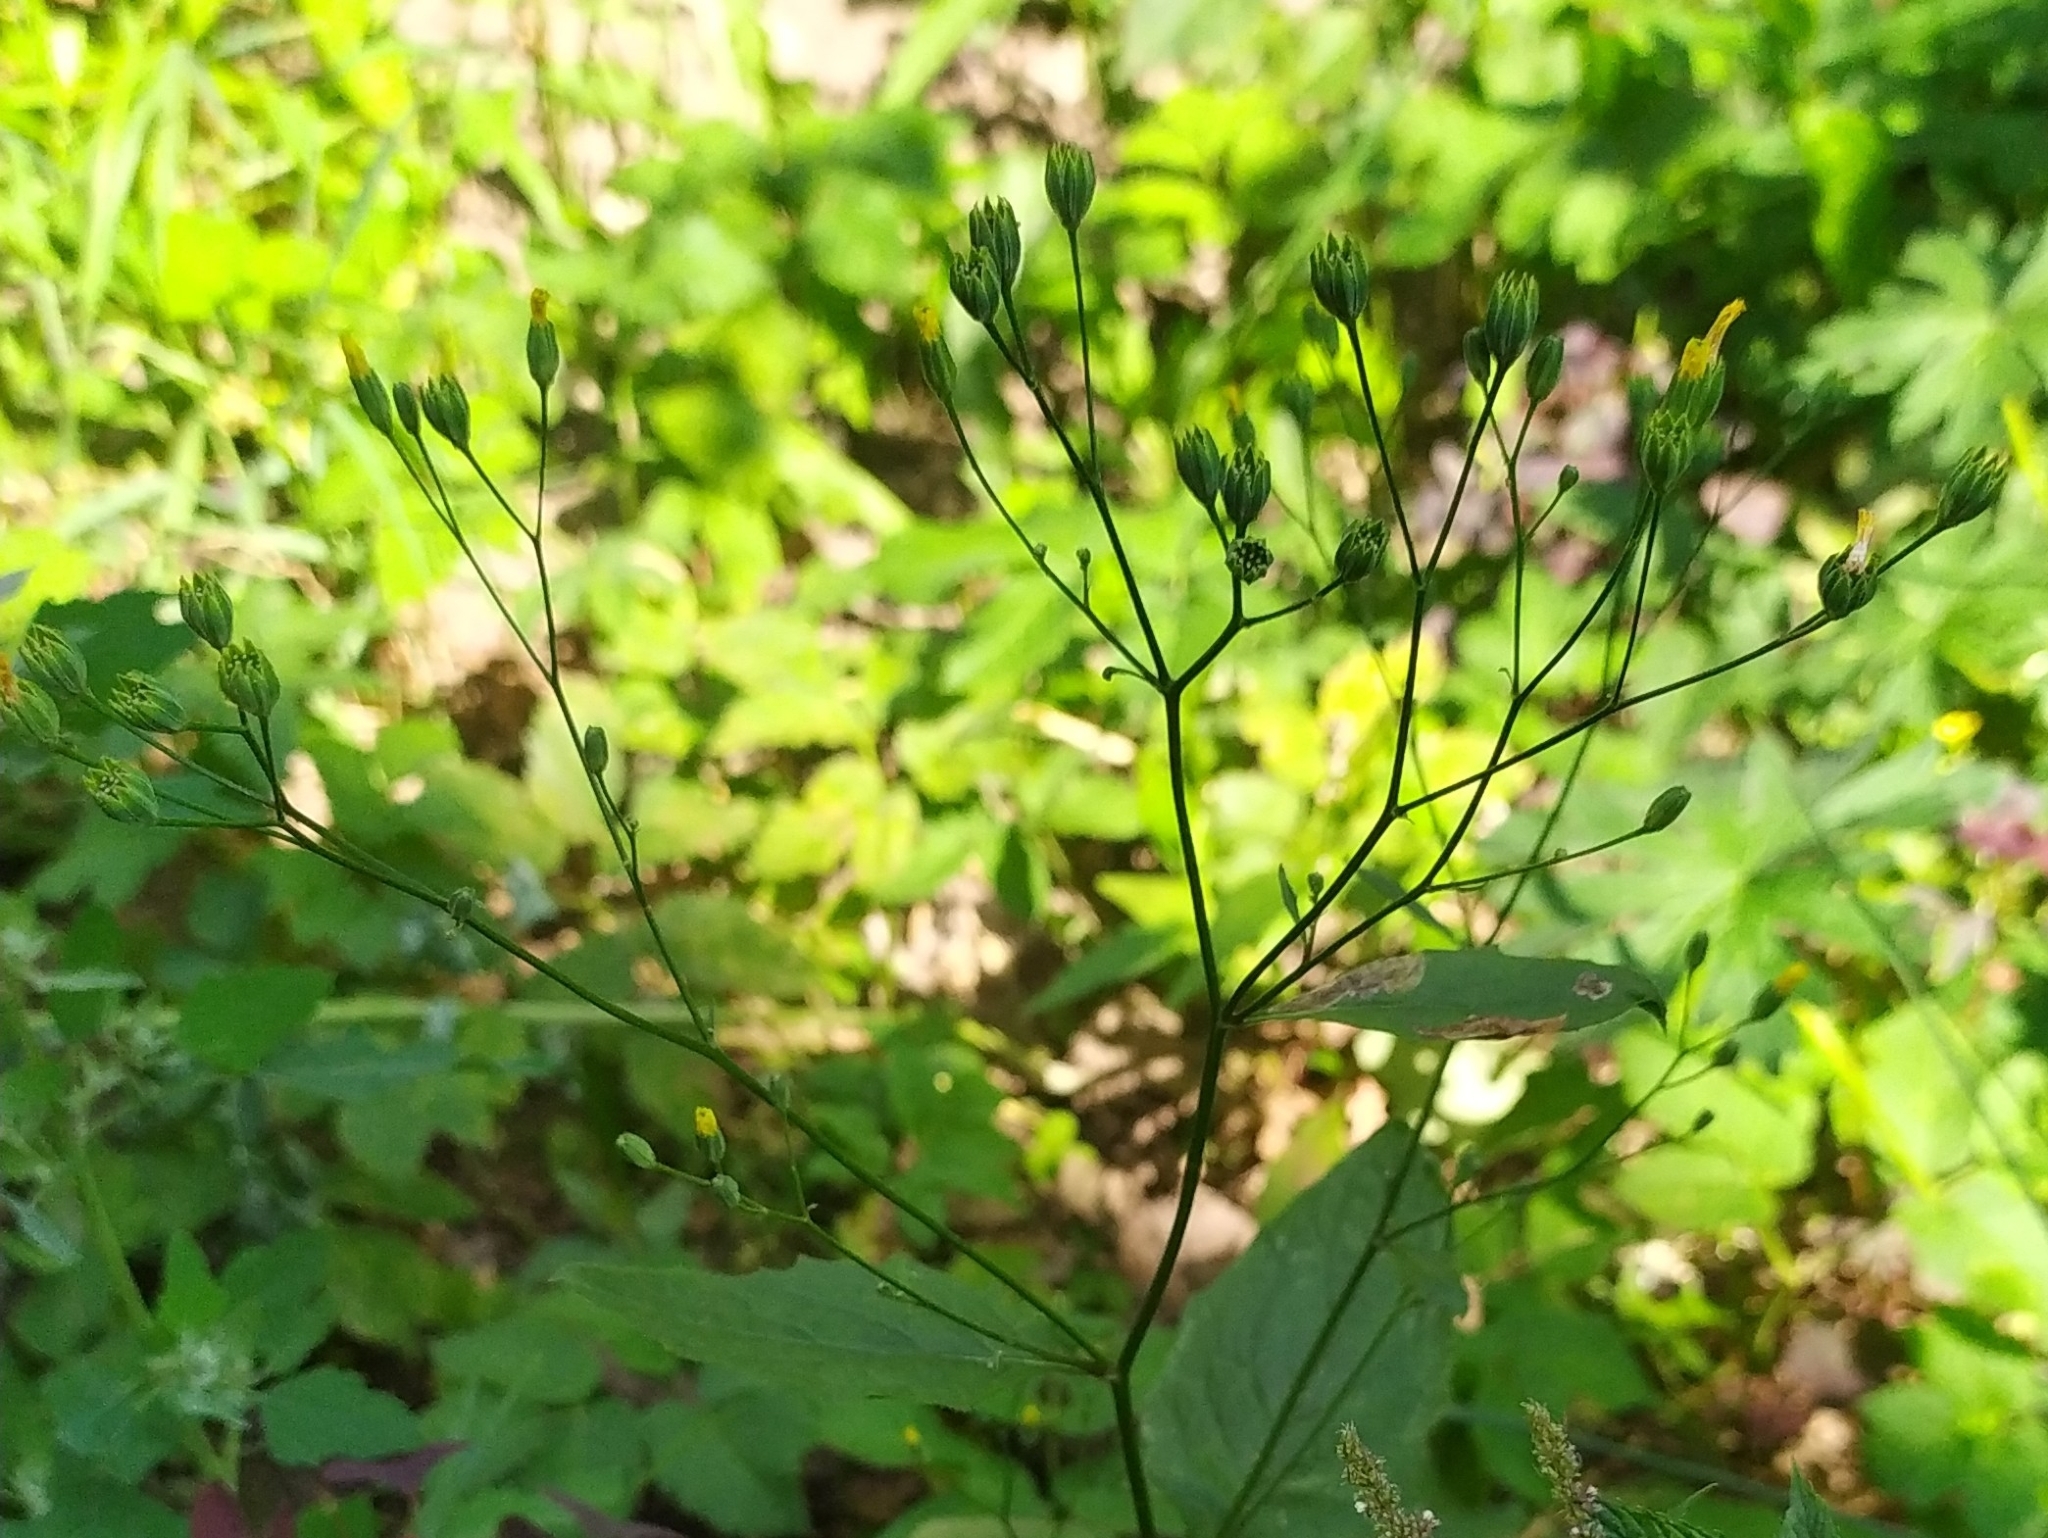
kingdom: Plantae
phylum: Tracheophyta
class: Magnoliopsida
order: Asterales
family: Asteraceae
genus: Lapsana
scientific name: Lapsana communis
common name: Nipplewort
